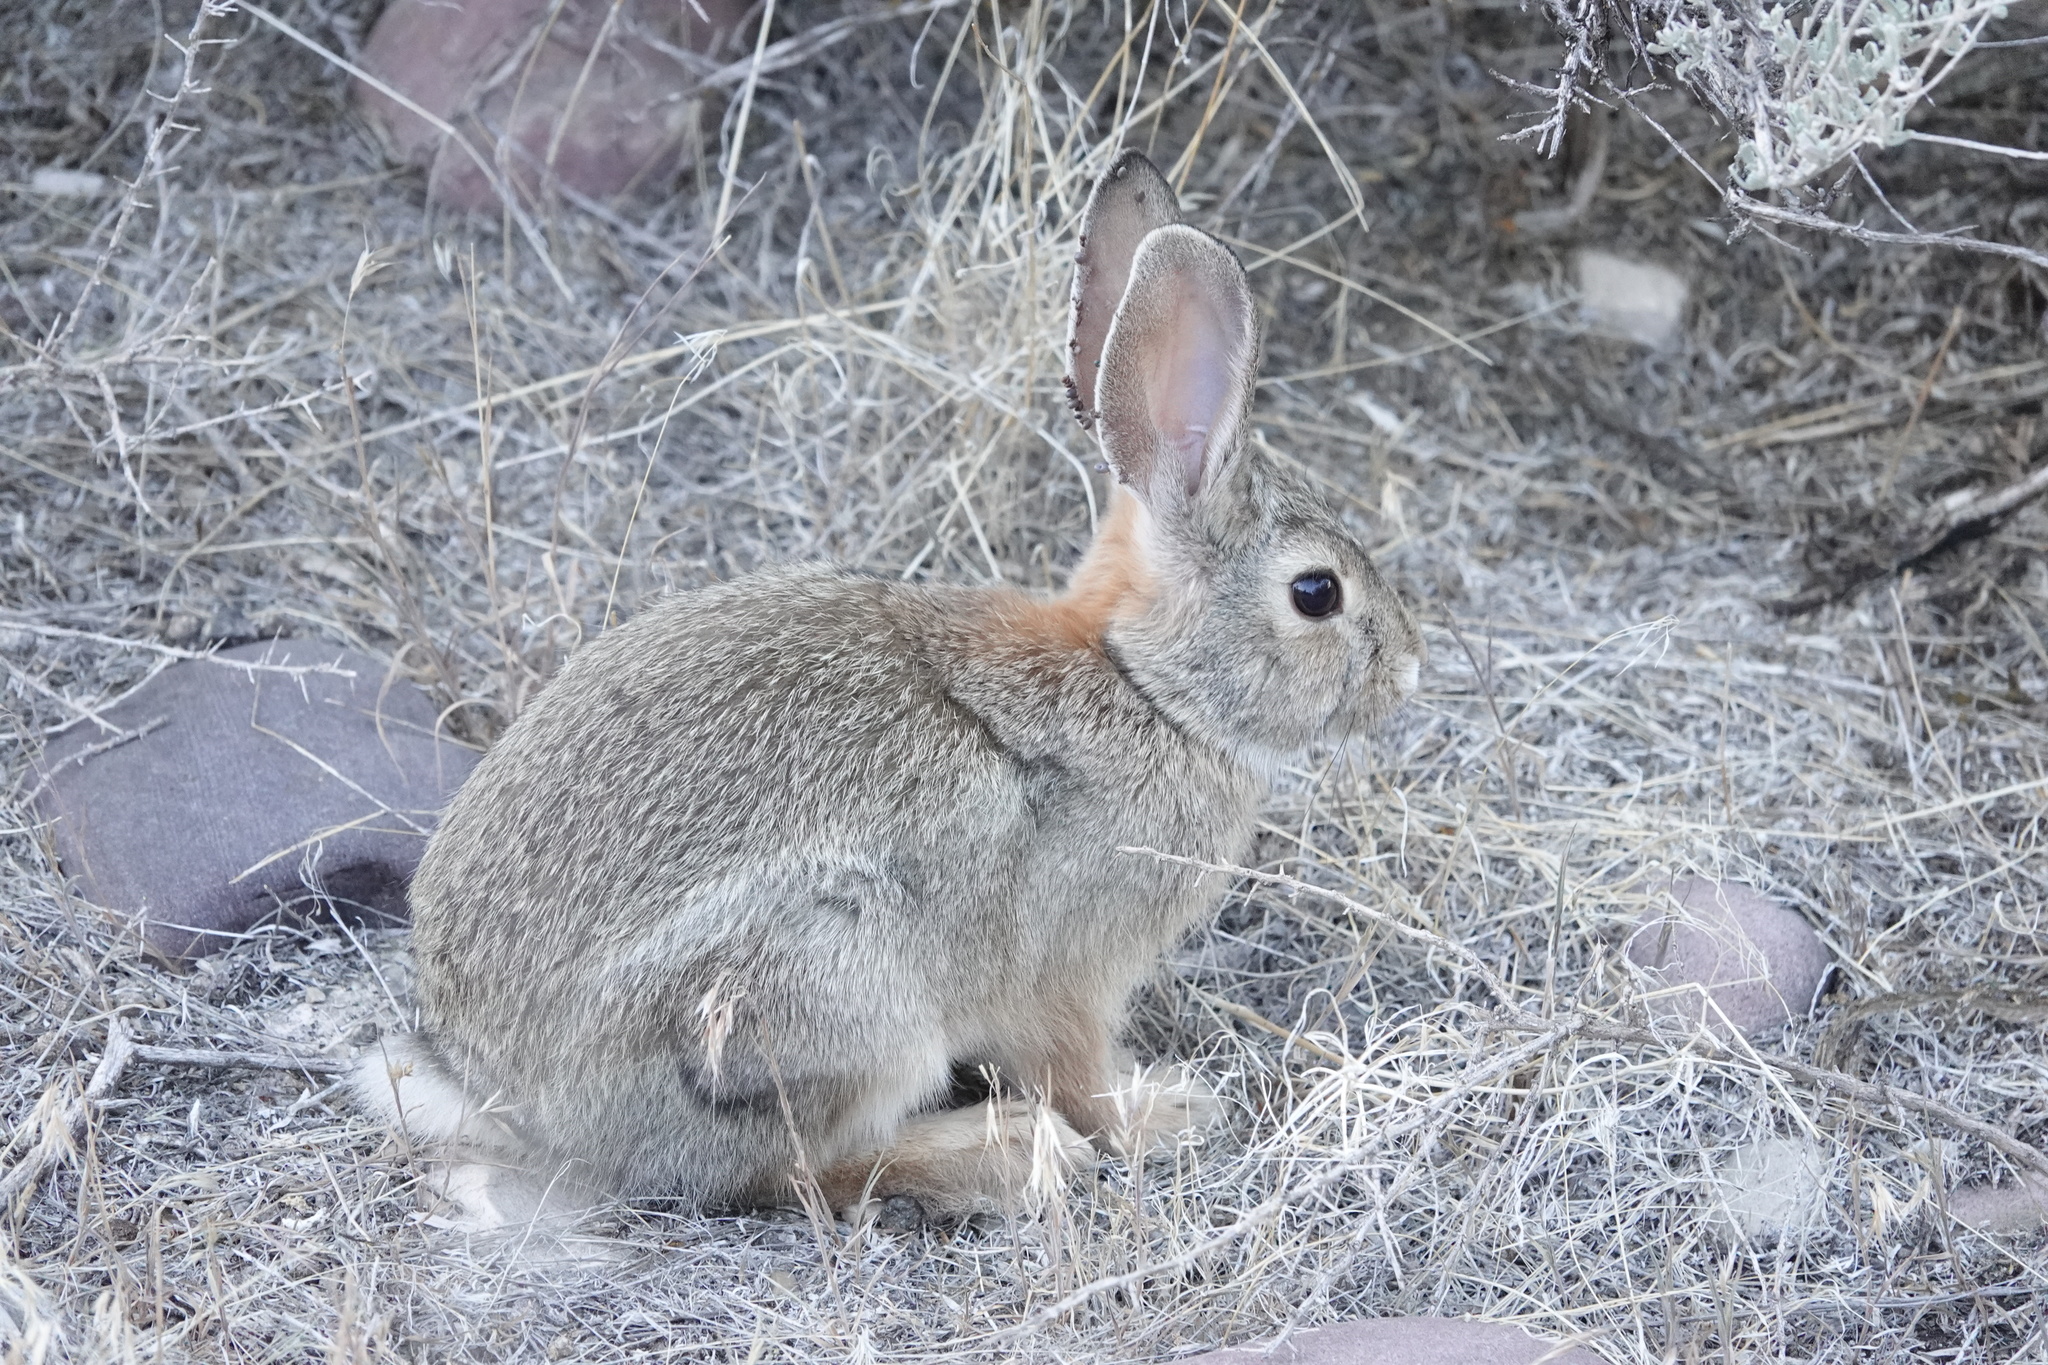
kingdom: Animalia
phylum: Chordata
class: Mammalia
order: Lagomorpha
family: Leporidae
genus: Sylvilagus
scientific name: Sylvilagus audubonii
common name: Desert cottontail
